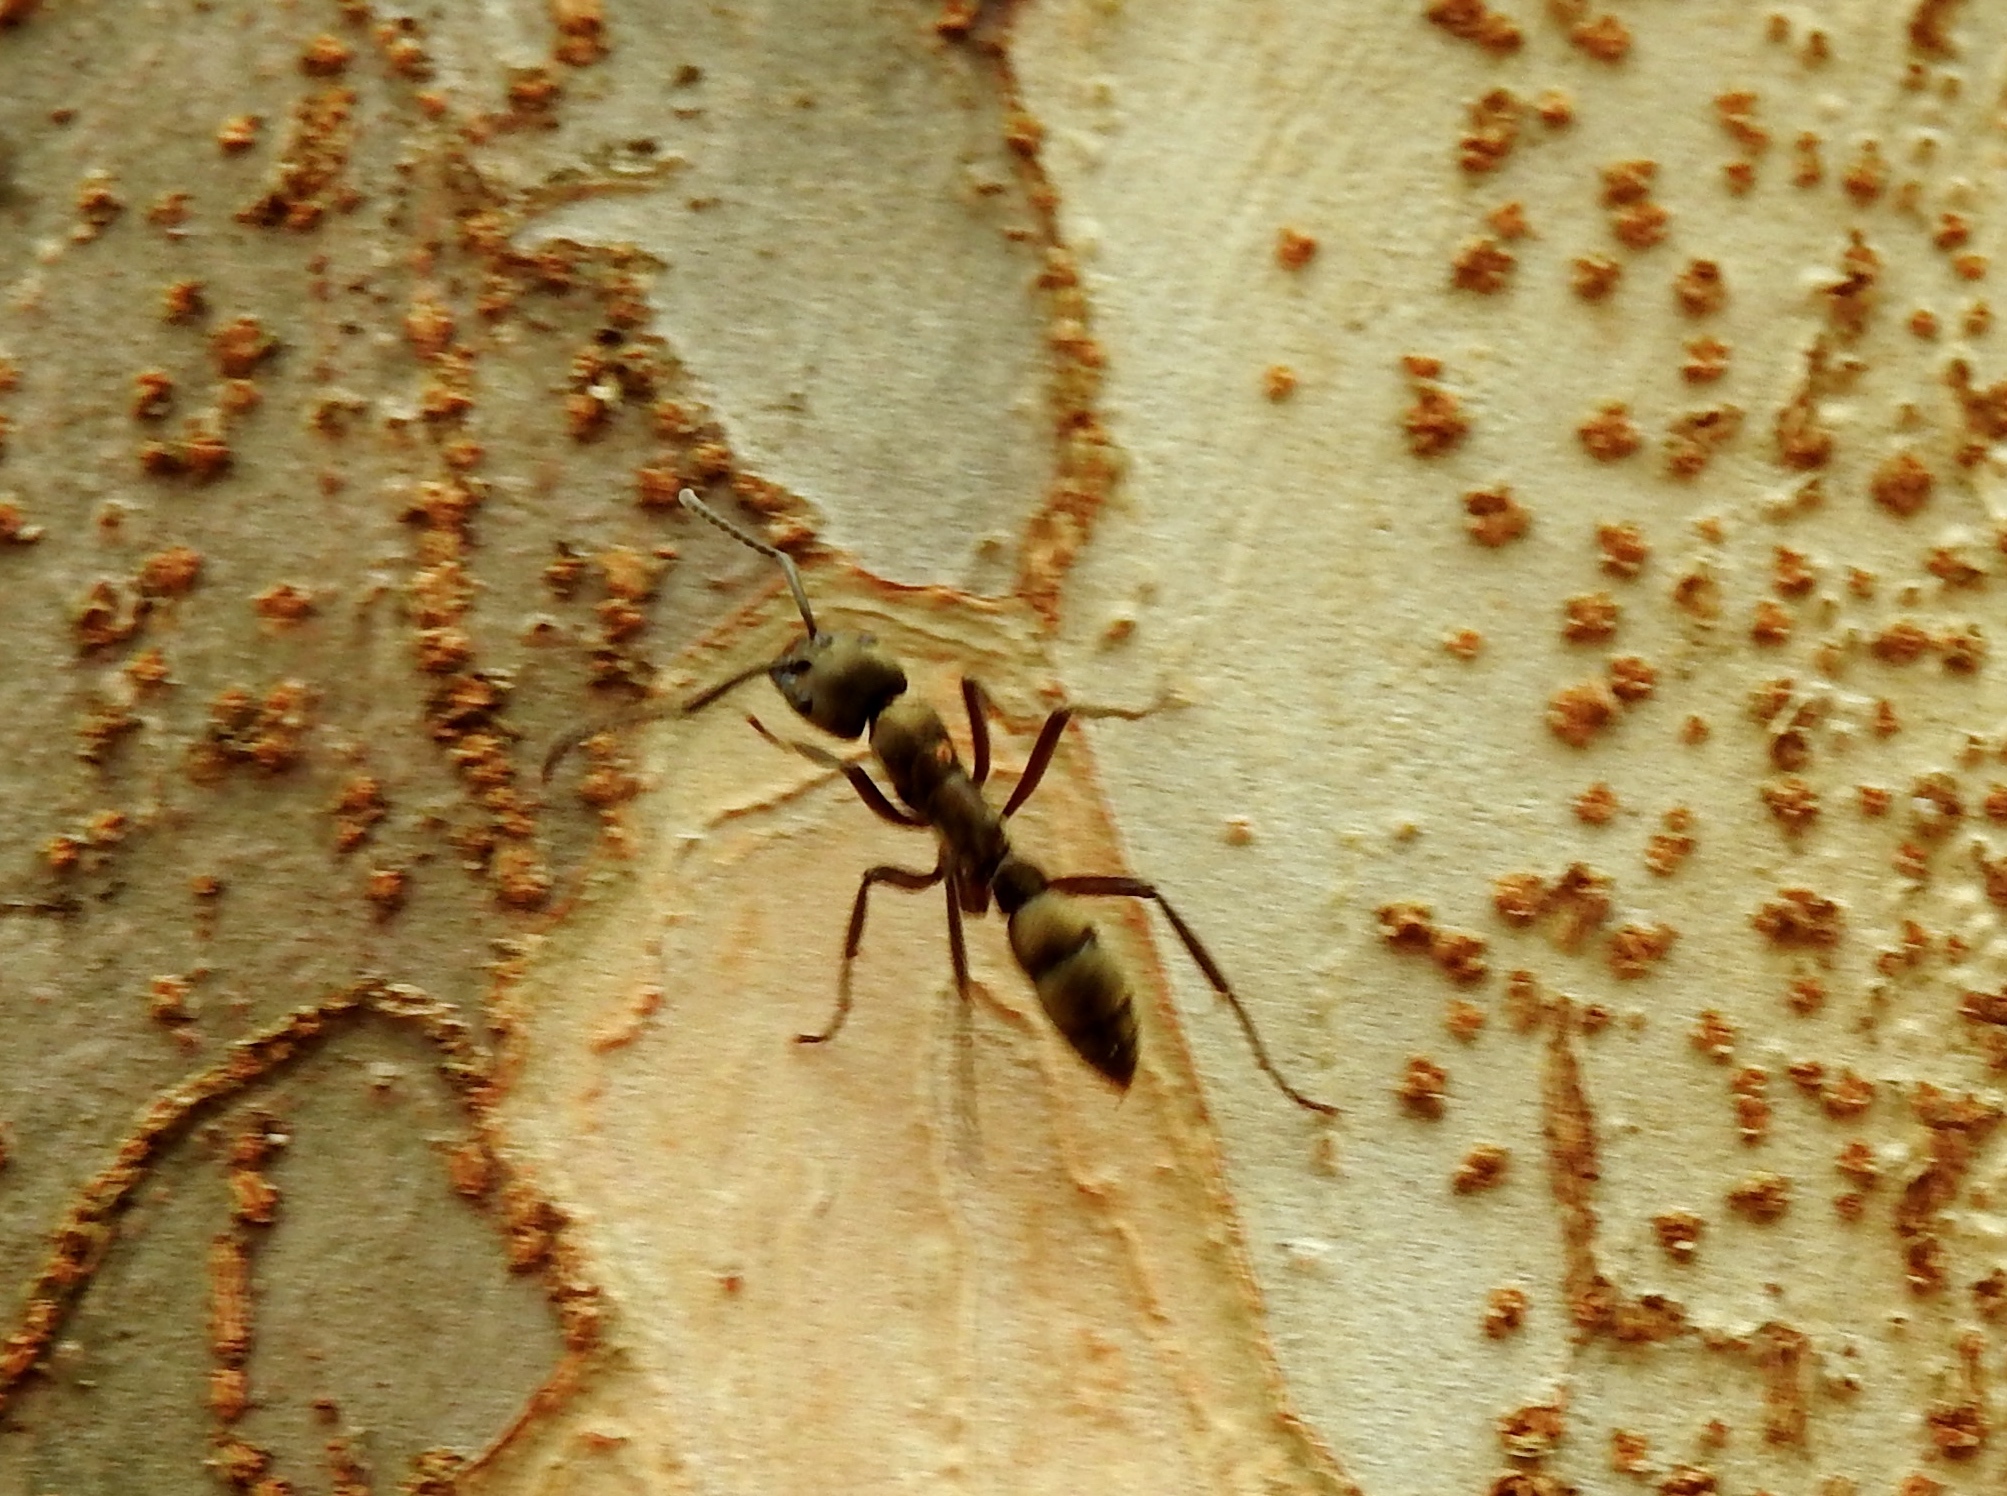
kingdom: Animalia
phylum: Arthropoda
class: Insecta
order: Hymenoptera
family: Formicidae
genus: Pachycondyla
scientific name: Pachycondyla villosa
